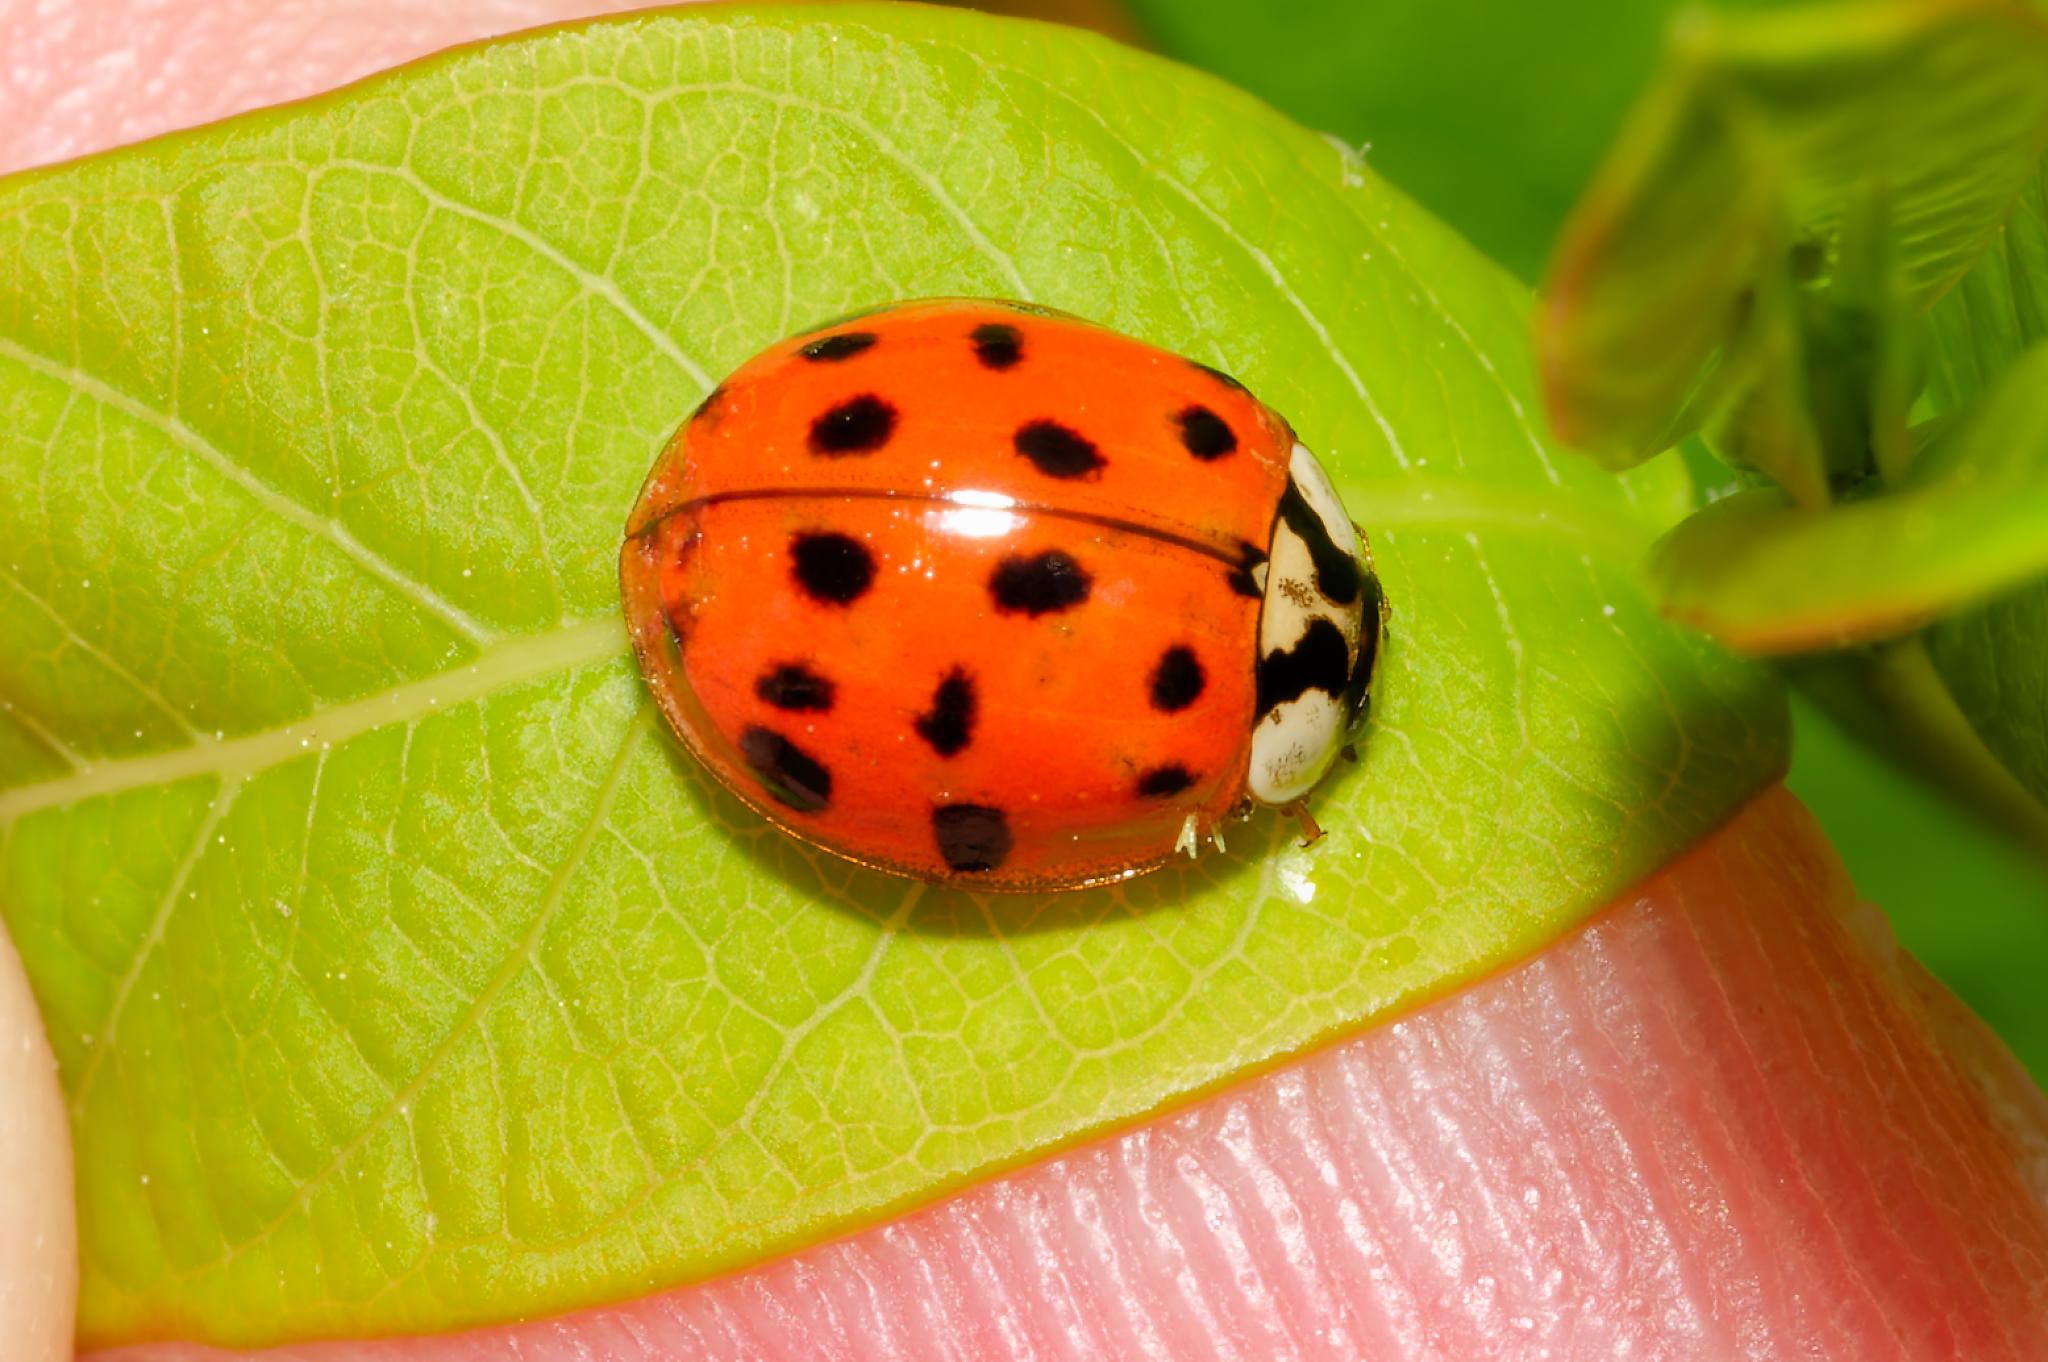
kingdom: Animalia
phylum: Arthropoda
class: Insecta
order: Coleoptera
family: Coccinellidae
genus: Harmonia
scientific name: Harmonia axyridis
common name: Harlequin ladybird
